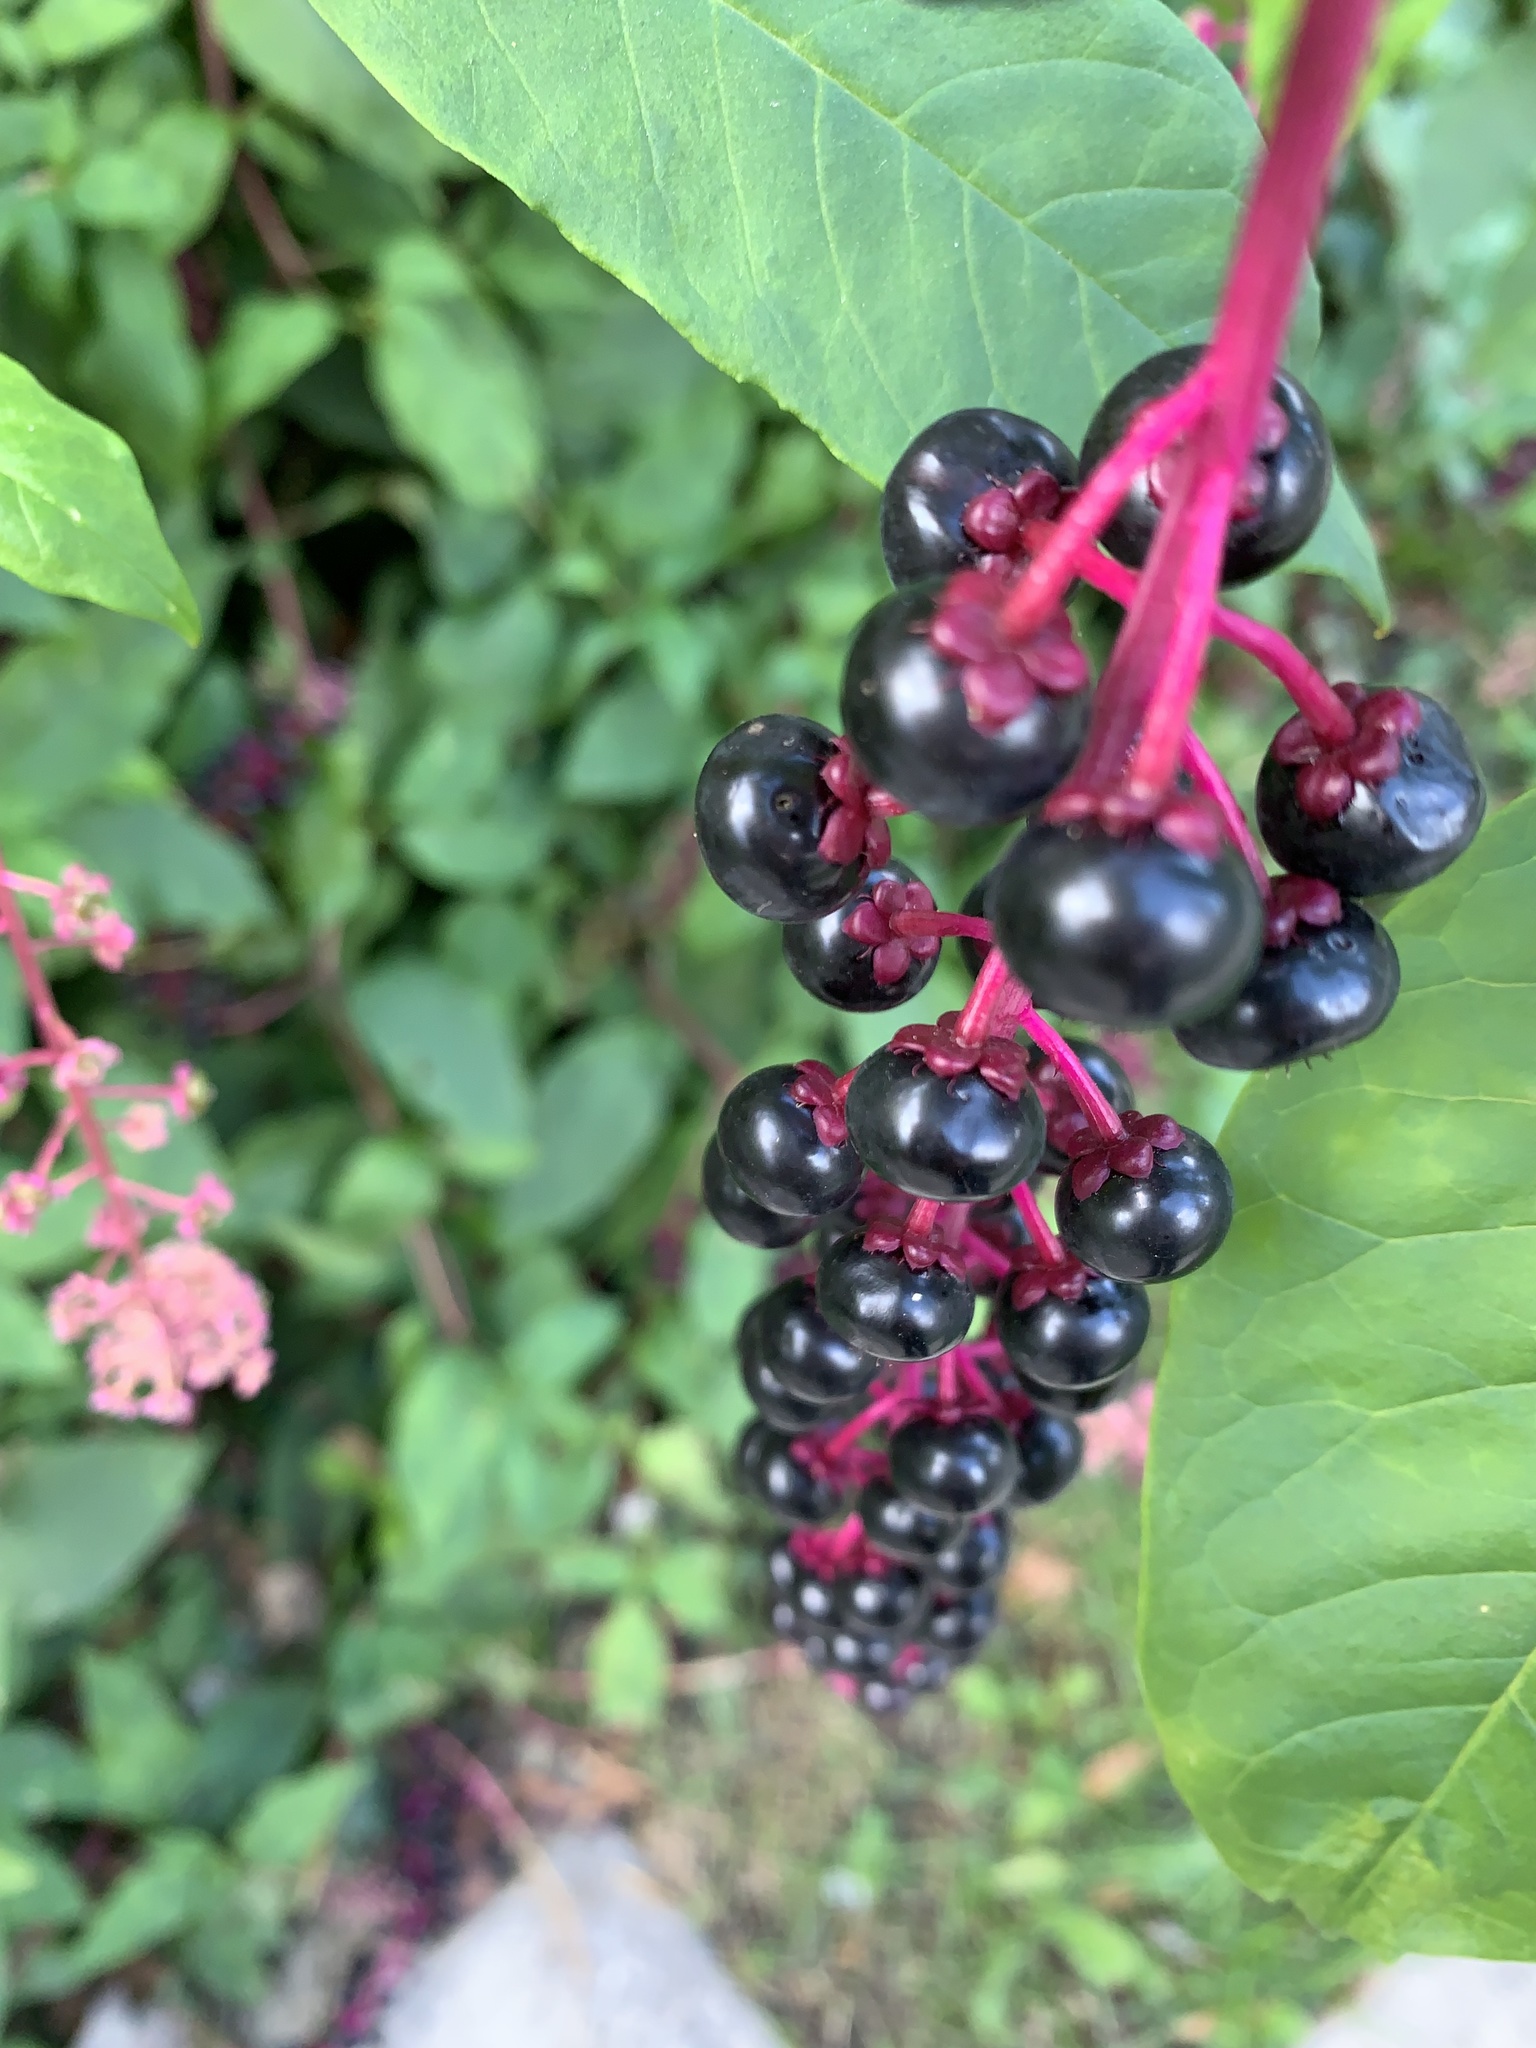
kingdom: Plantae
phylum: Tracheophyta
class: Magnoliopsida
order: Caryophyllales
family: Phytolaccaceae
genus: Phytolacca
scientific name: Phytolacca americana
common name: American pokeweed
